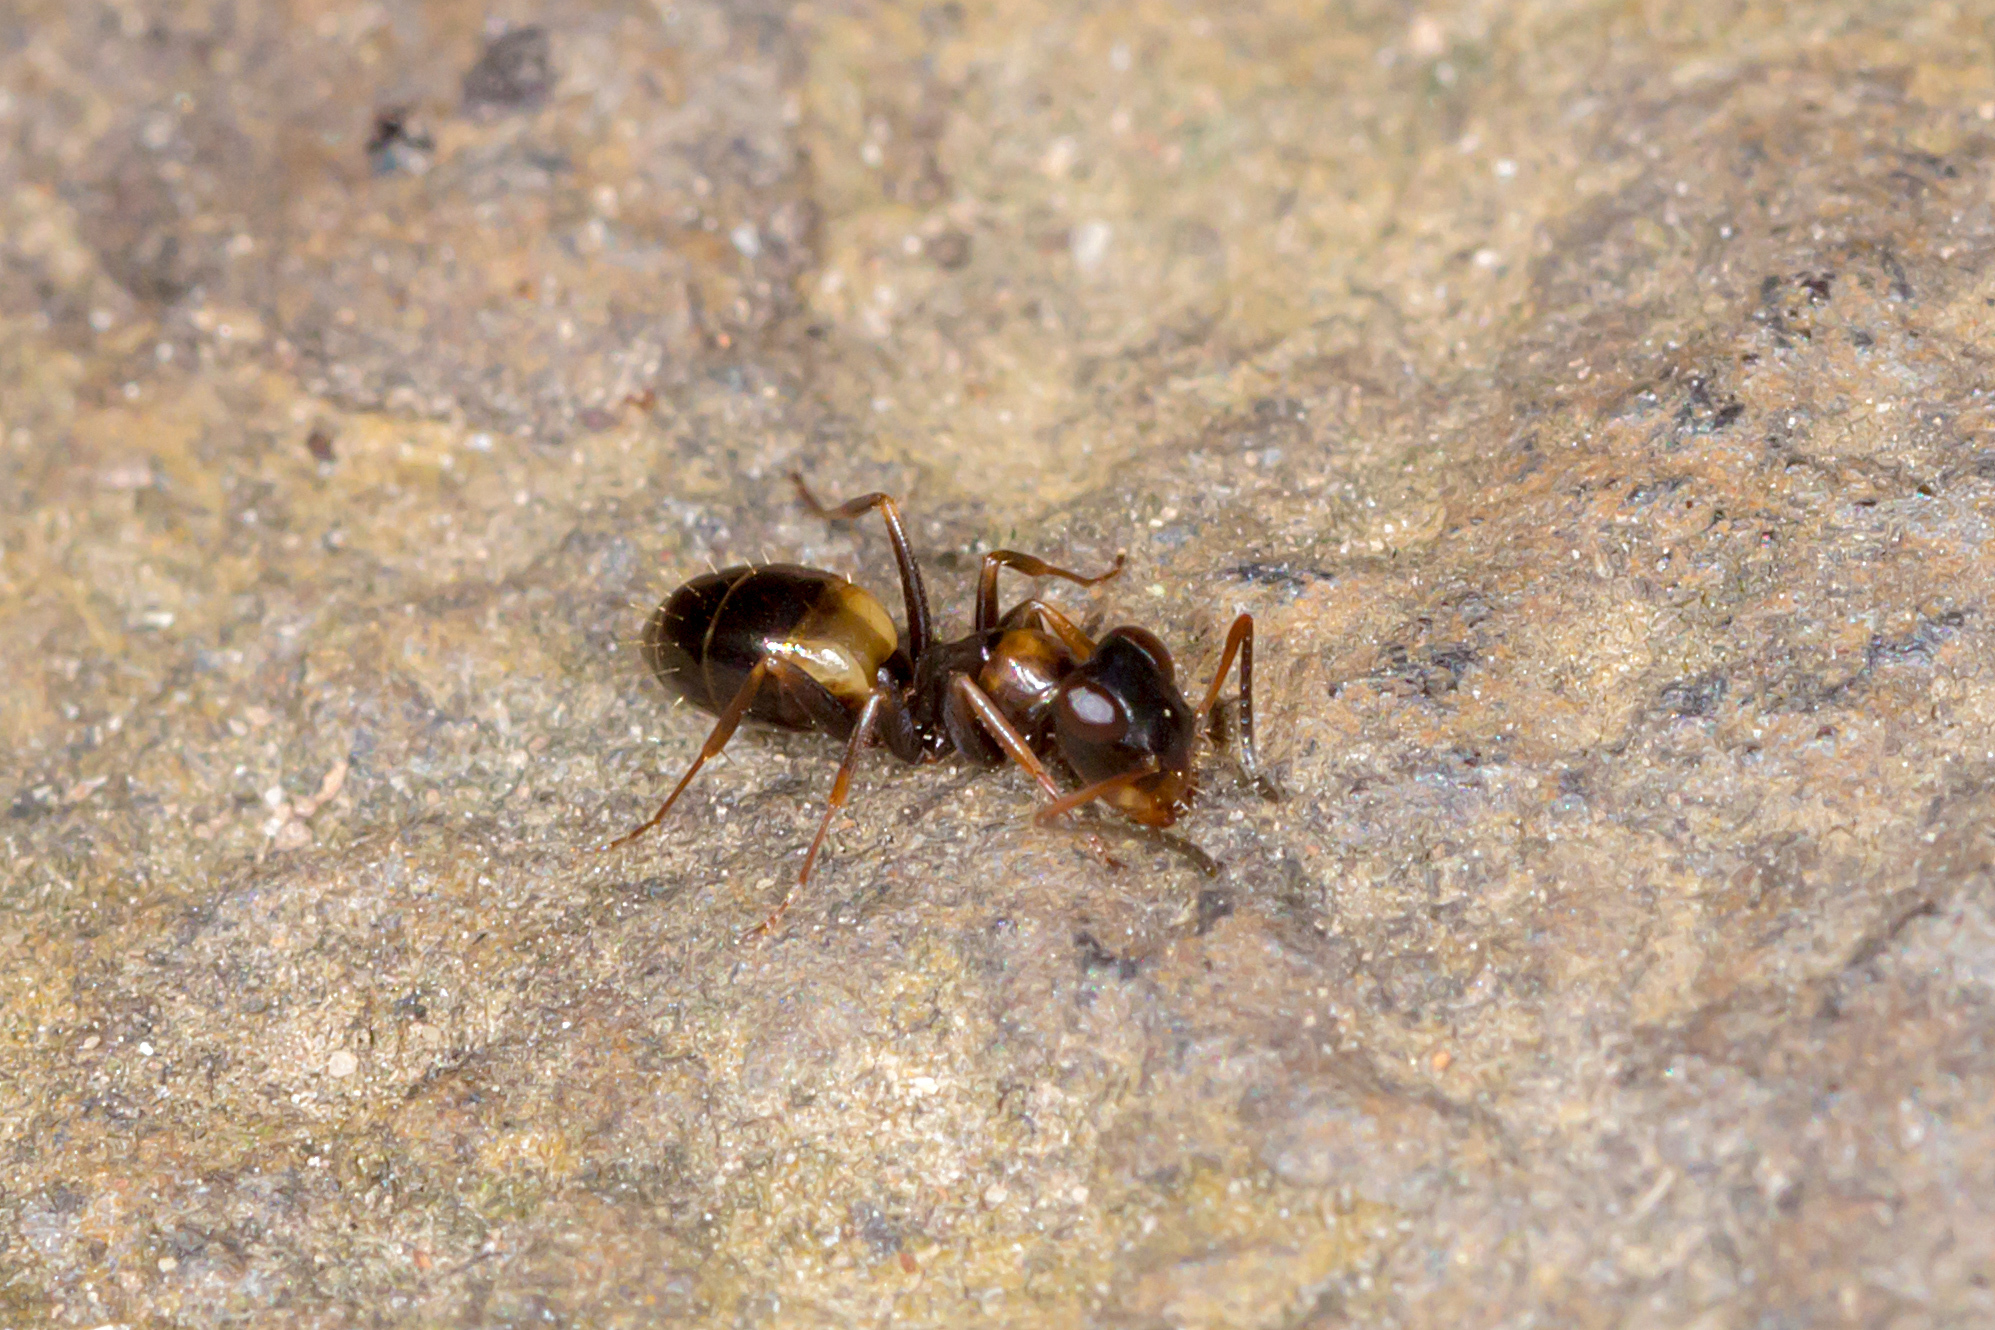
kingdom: Animalia
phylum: Arthropoda
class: Insecta
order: Hymenoptera
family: Formicidae
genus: Opisthopsis
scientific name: Opisthopsis respiciens
